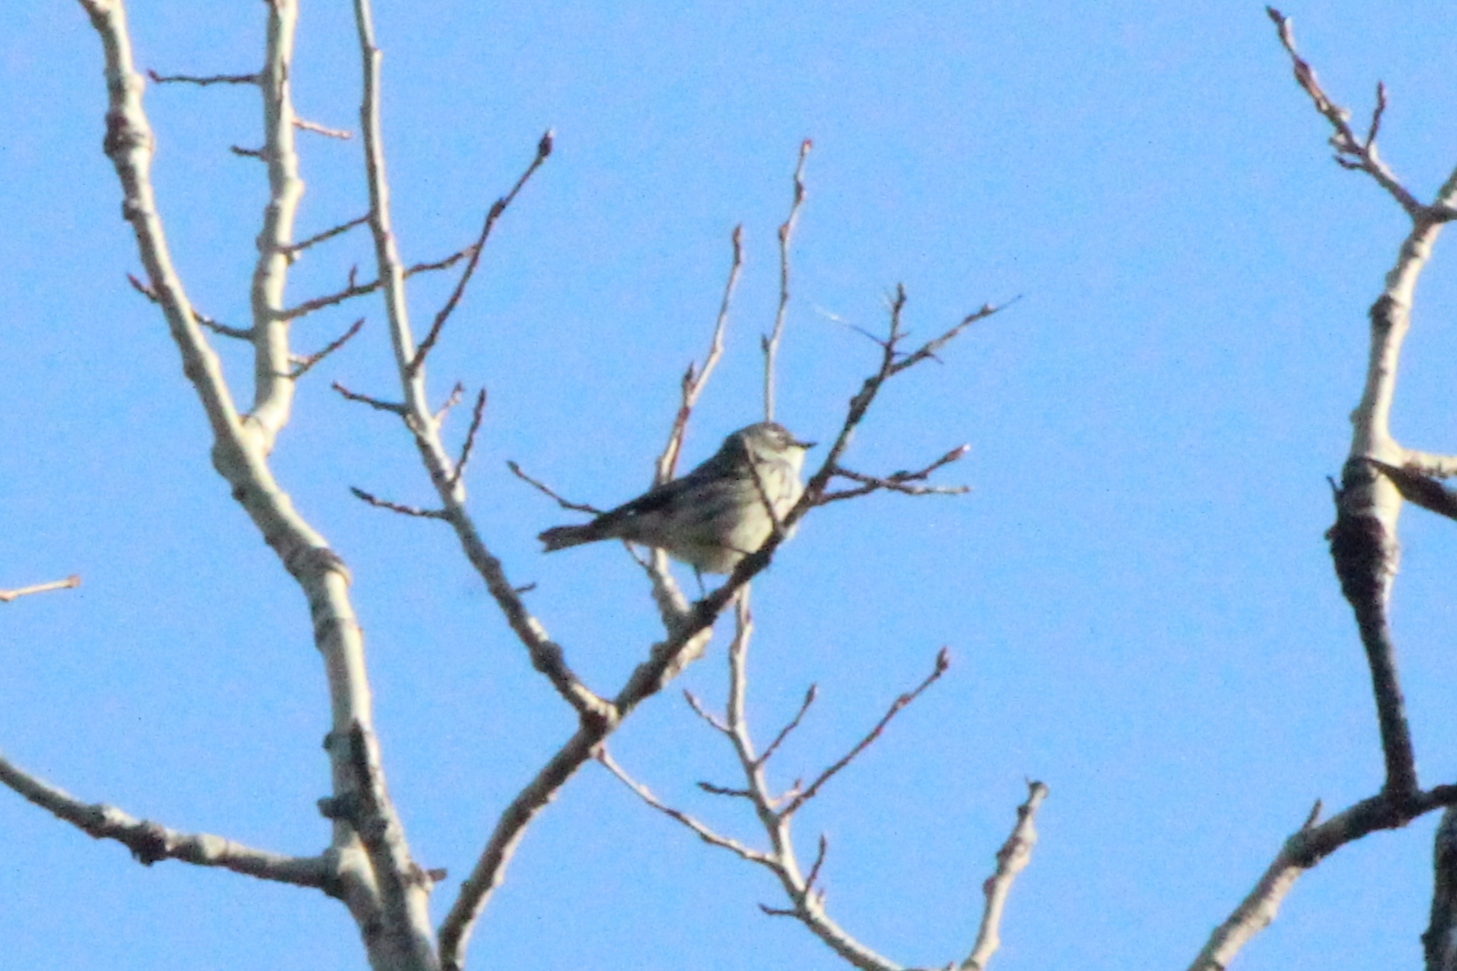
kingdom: Animalia
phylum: Chordata
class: Aves
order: Passeriformes
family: Parulidae
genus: Setophaga
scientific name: Setophaga coronata
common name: Myrtle warbler
